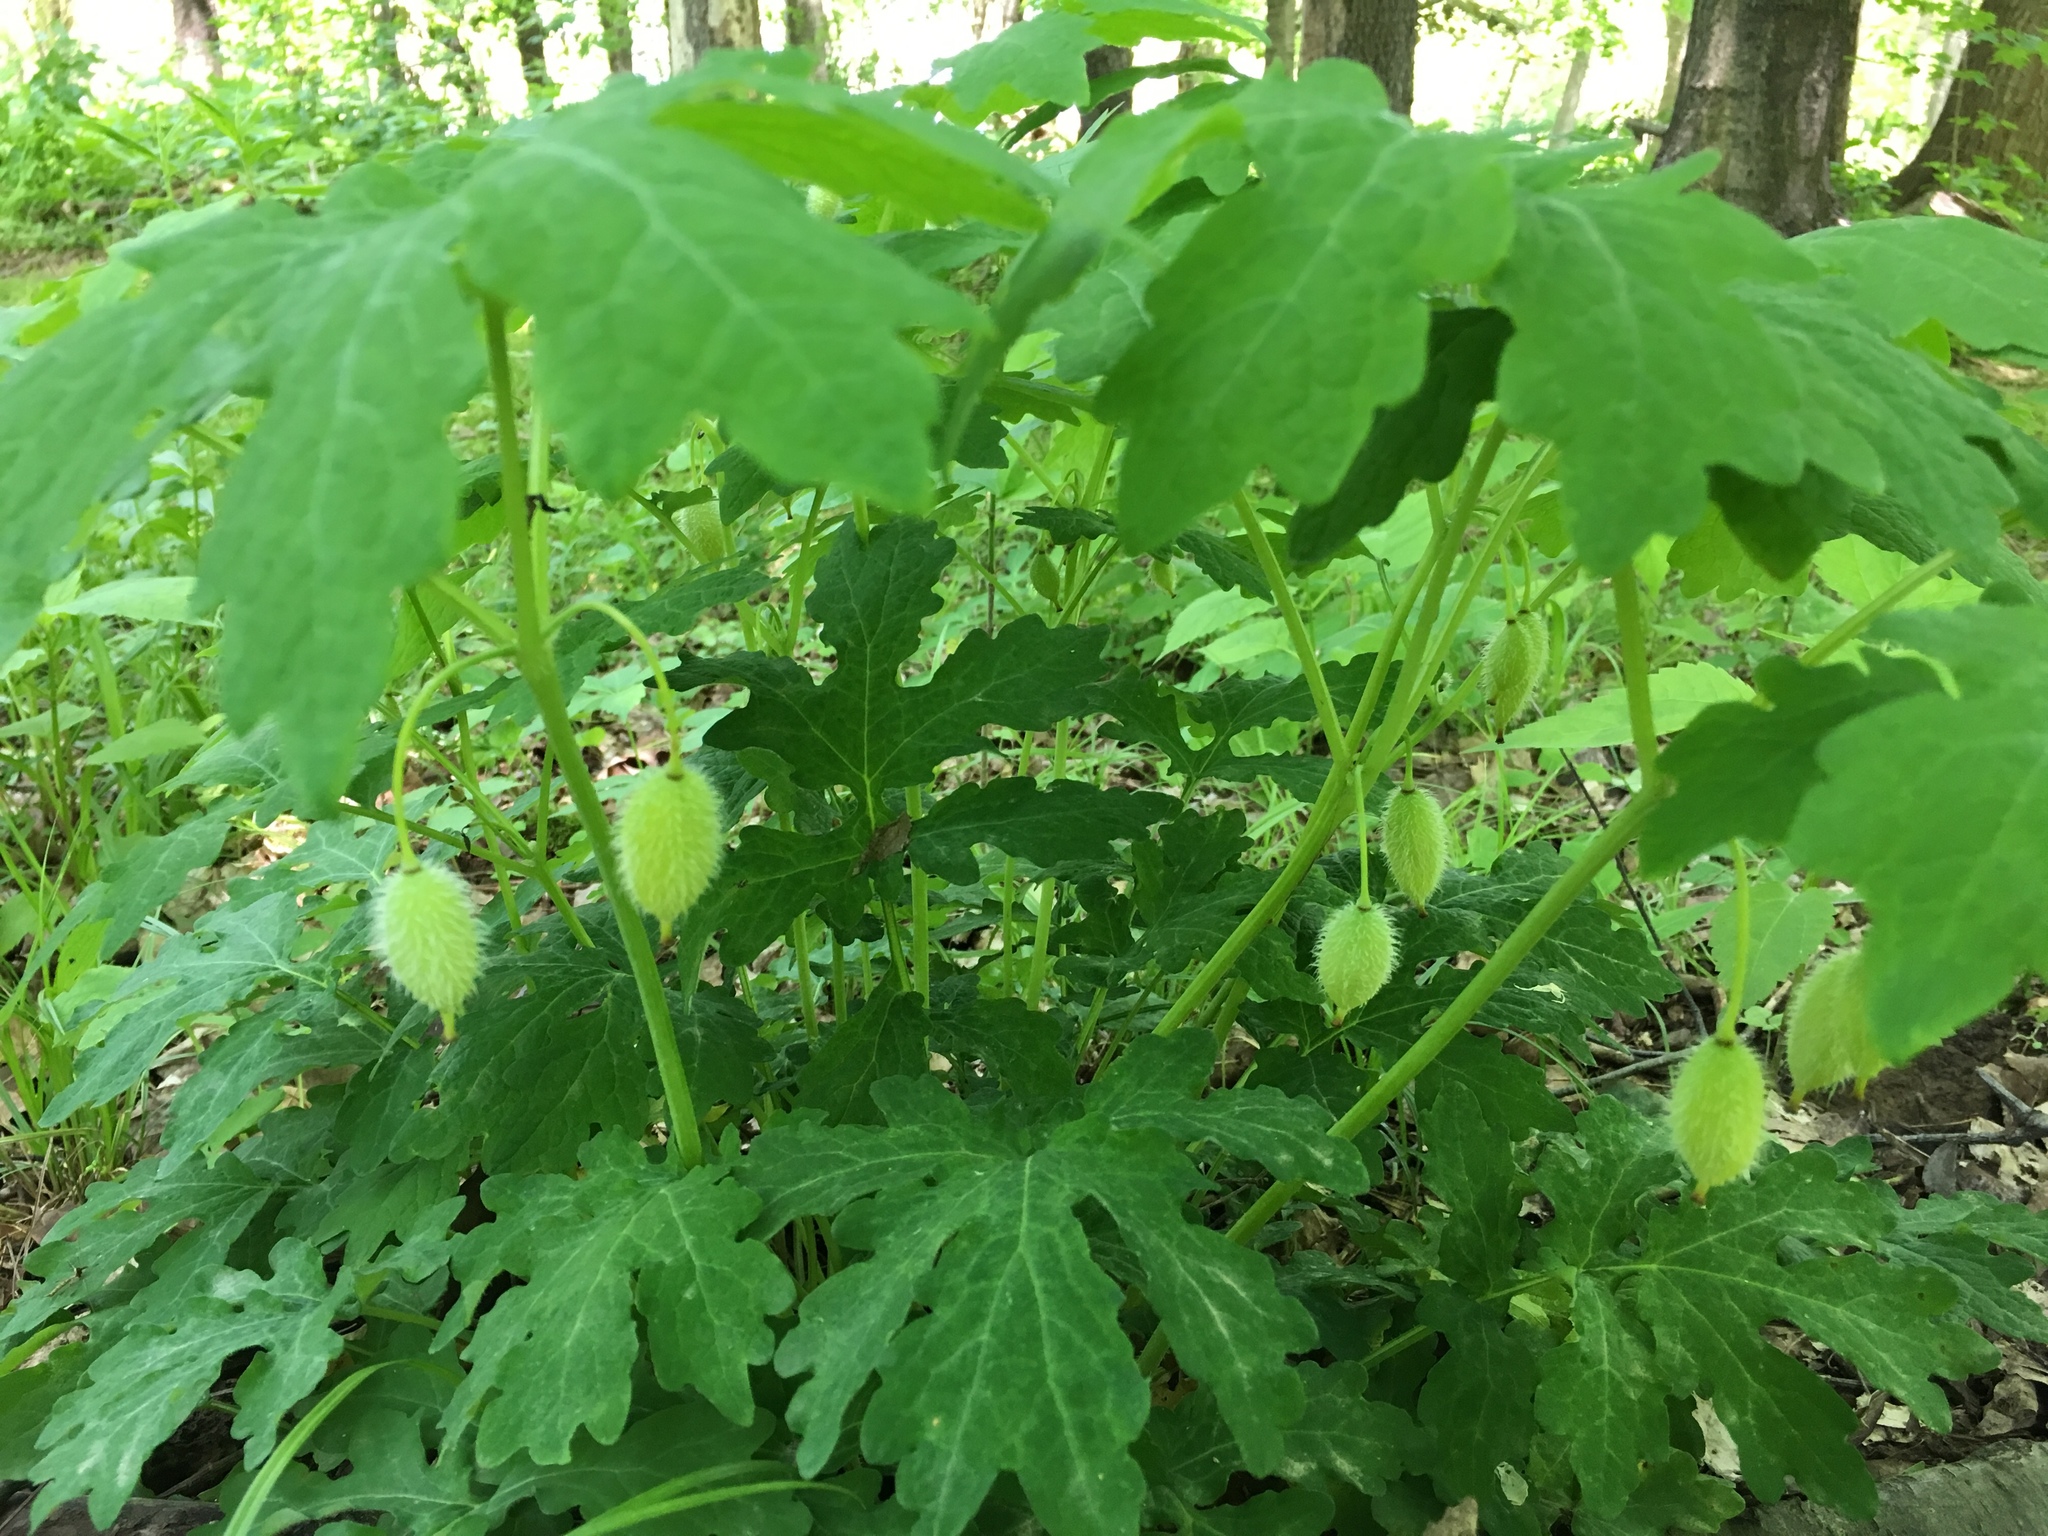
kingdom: Plantae
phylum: Tracheophyta
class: Magnoliopsida
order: Ranunculales
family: Papaveraceae
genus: Stylophorum
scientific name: Stylophorum diphyllum
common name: Celandine poppy
